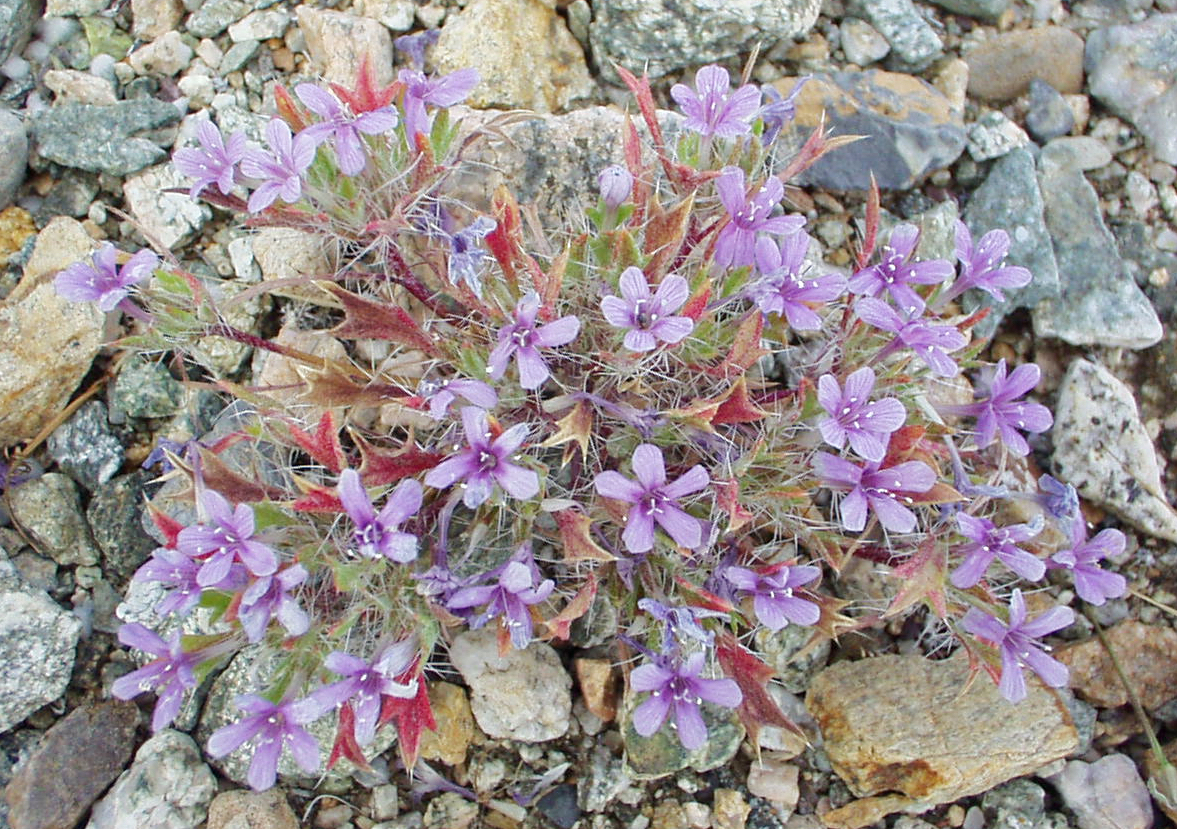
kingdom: Plantae
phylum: Tracheophyta
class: Magnoliopsida
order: Ericales
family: Polemoniaceae
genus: Langloisia
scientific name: Langloisia setosissima
